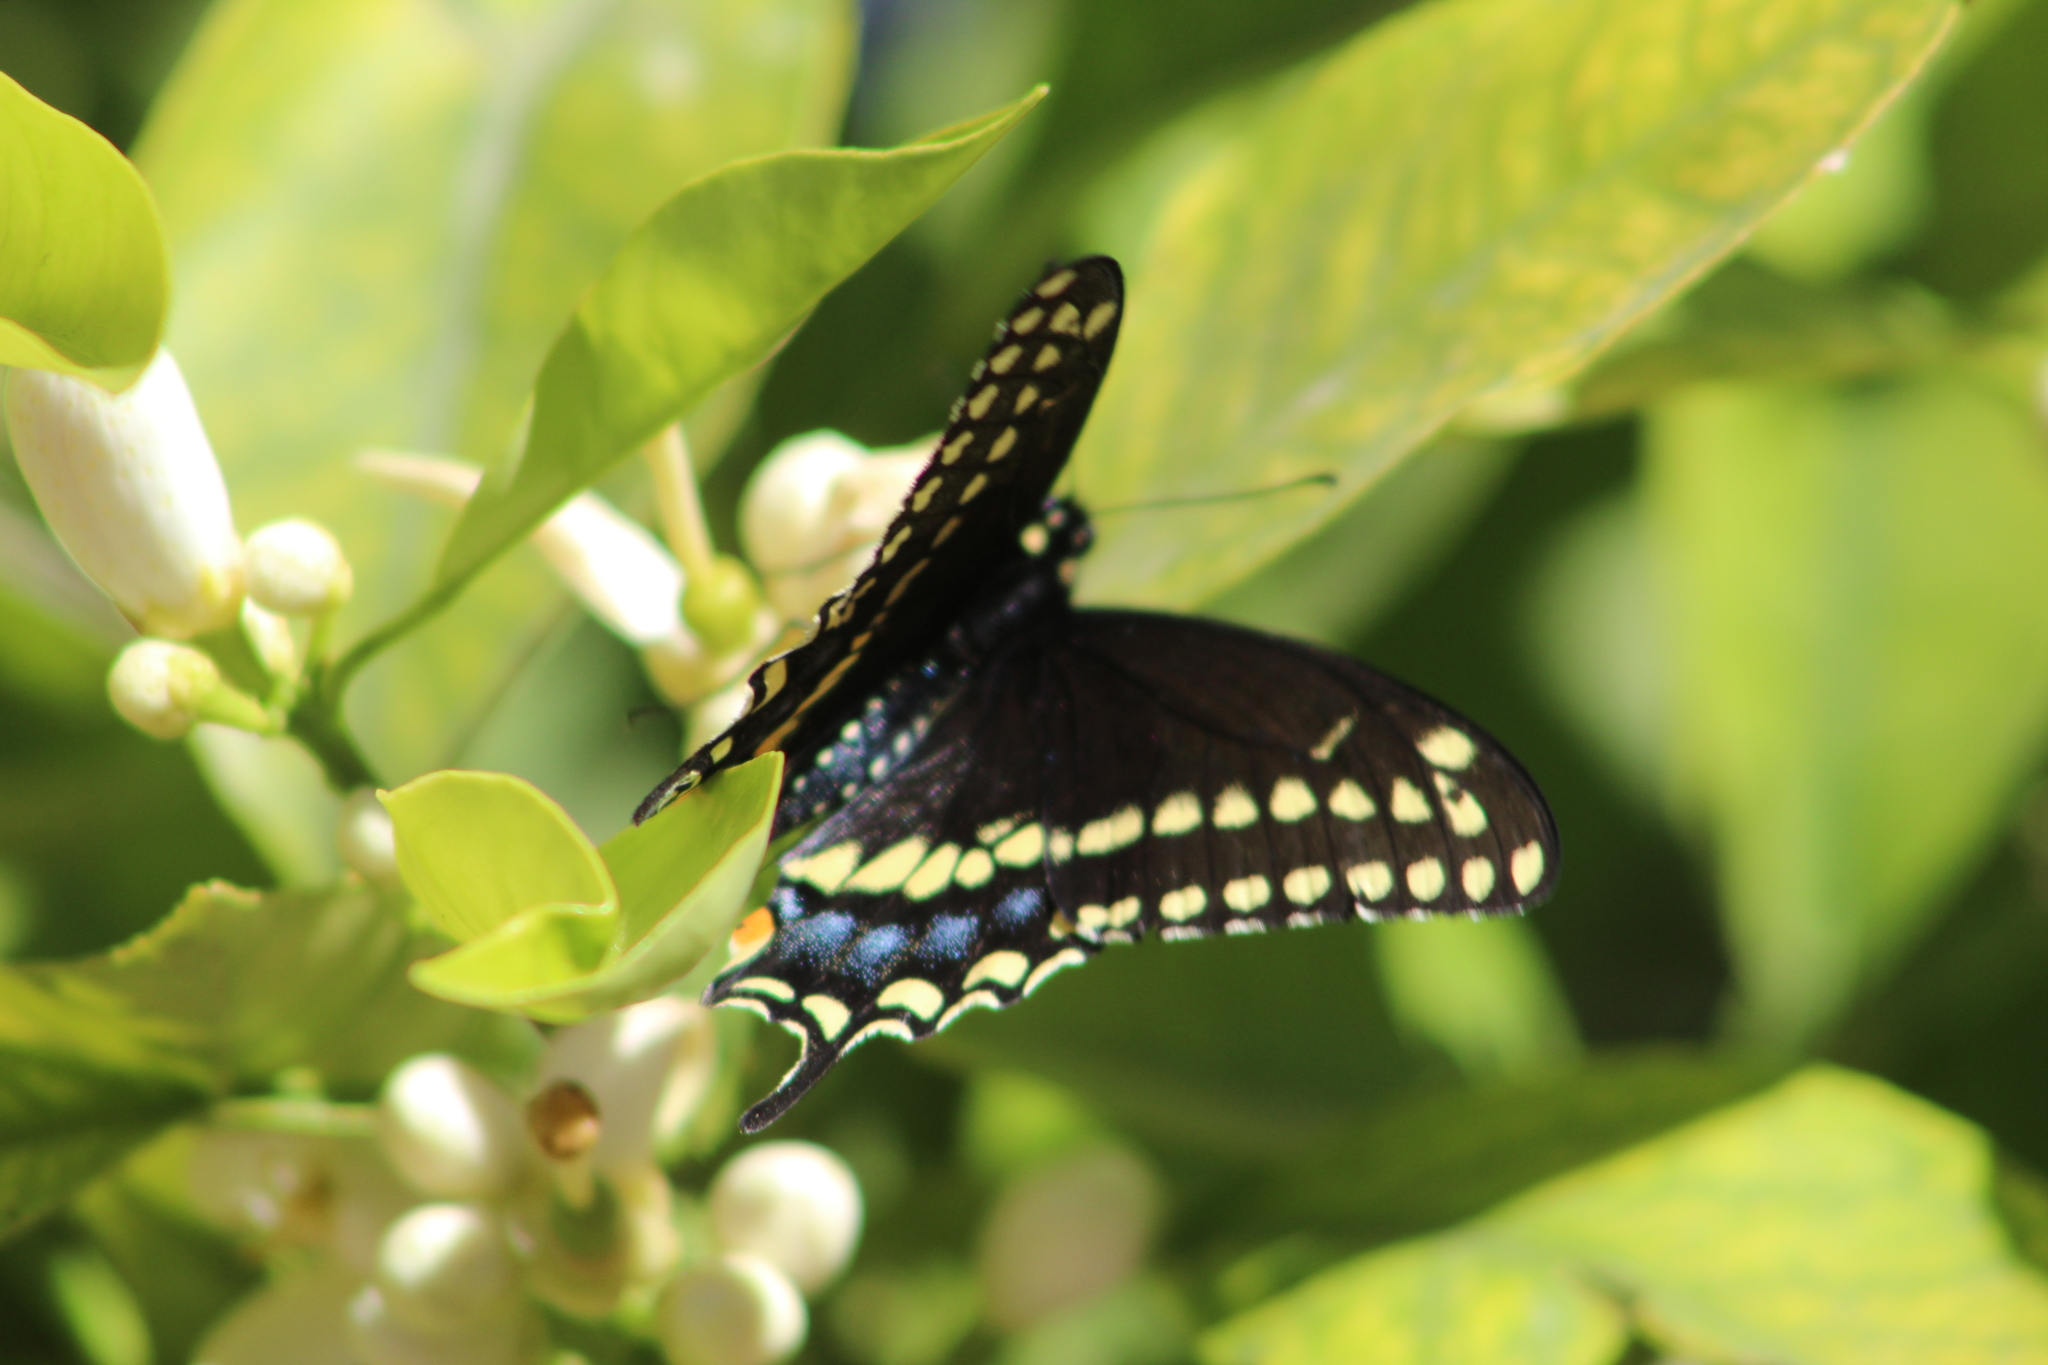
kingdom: Animalia
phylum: Arthropoda
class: Insecta
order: Lepidoptera
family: Papilionidae
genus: Papilio
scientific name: Papilio polyxenes
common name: Black swallowtail
